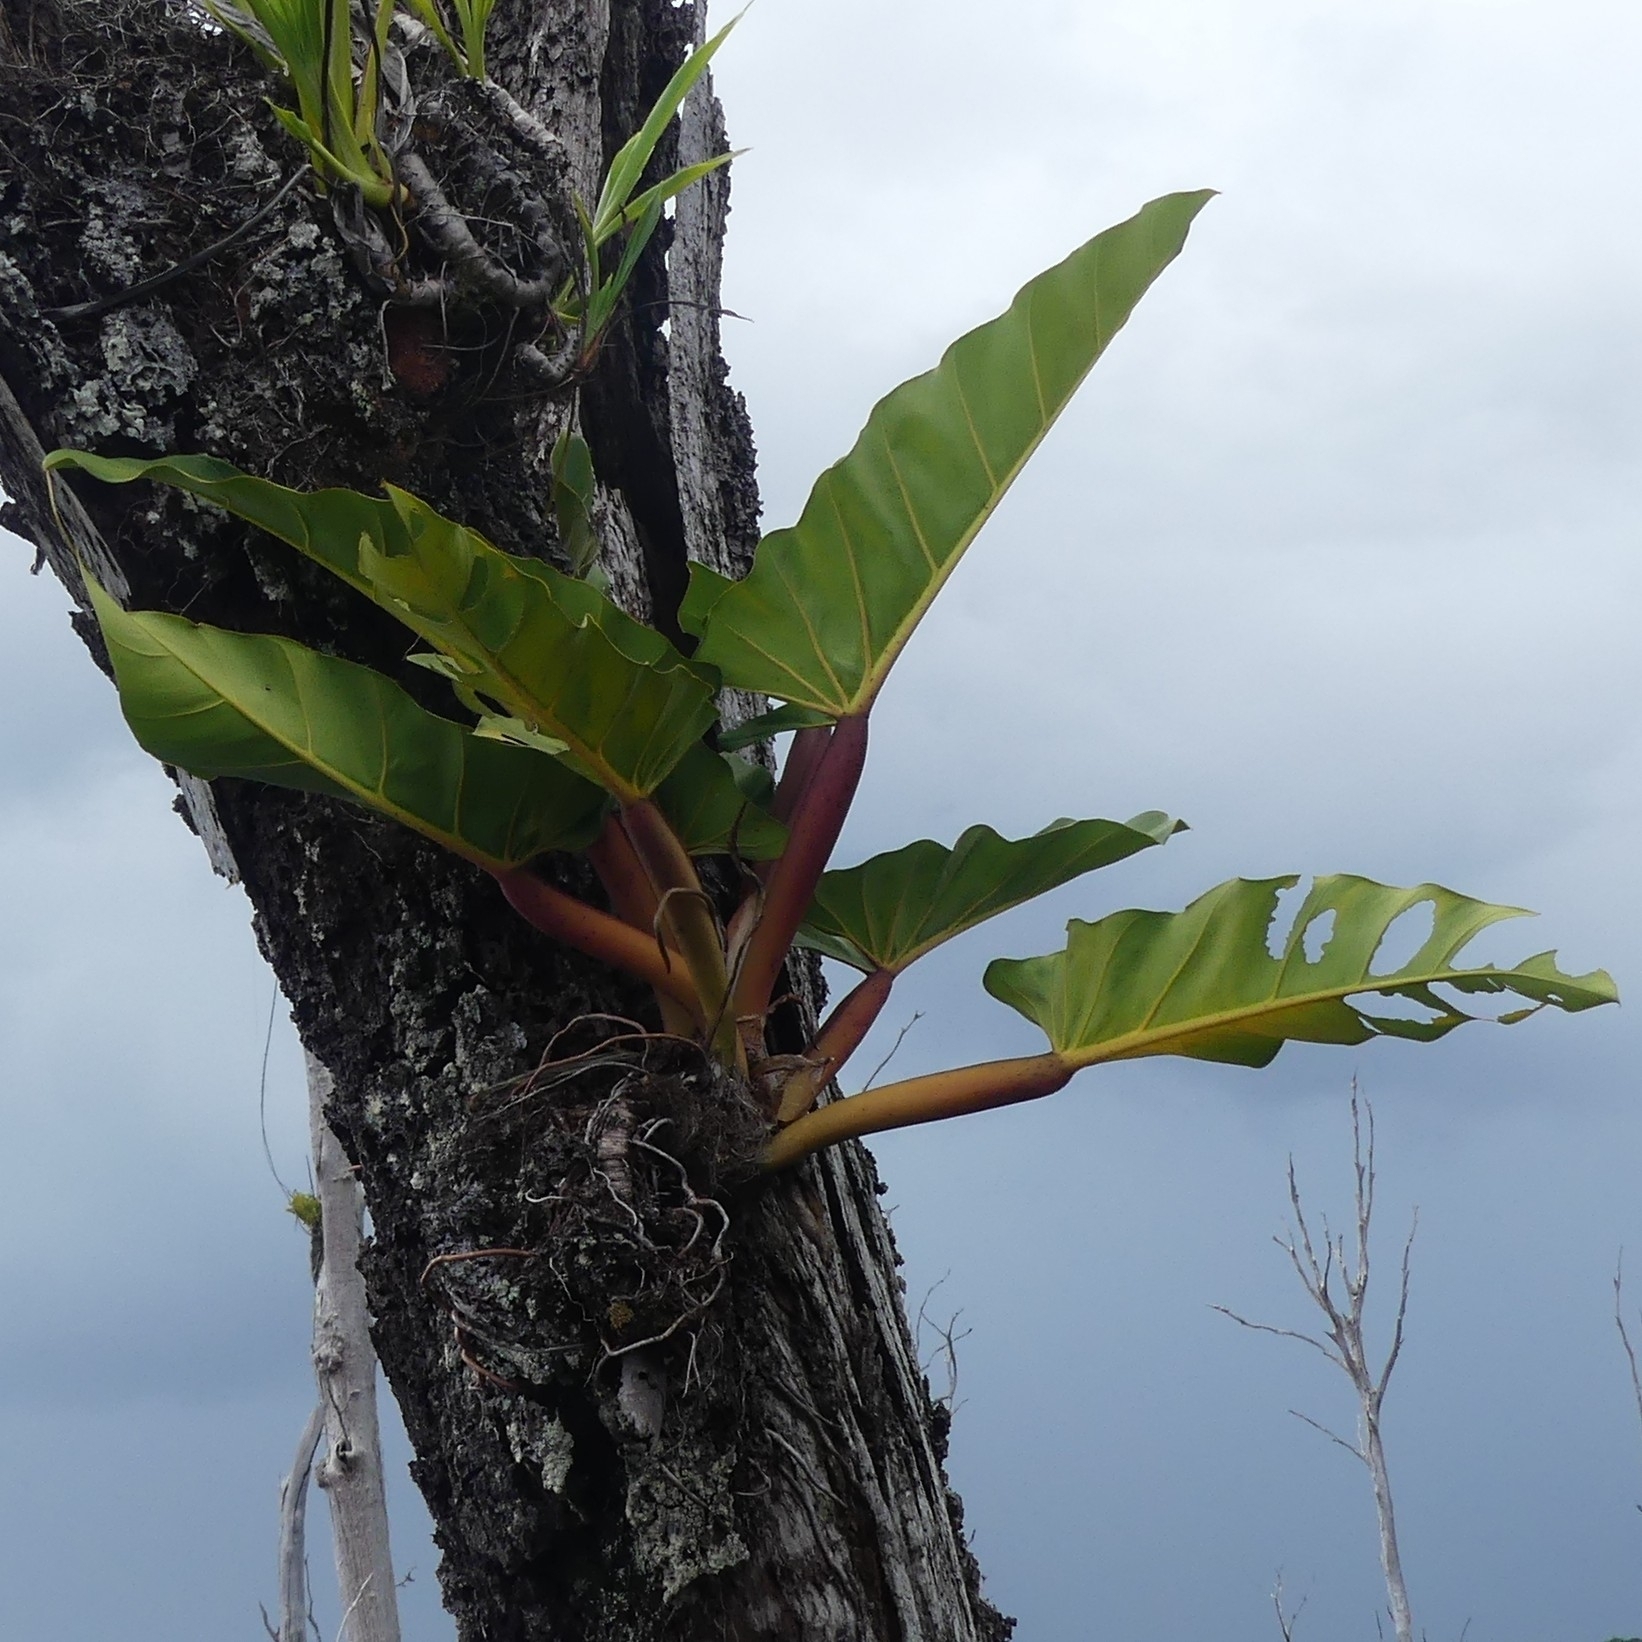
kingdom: Plantae
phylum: Tracheophyta
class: Liliopsida
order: Alismatales
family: Araceae
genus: Philodendron
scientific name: Philodendron melinonii
